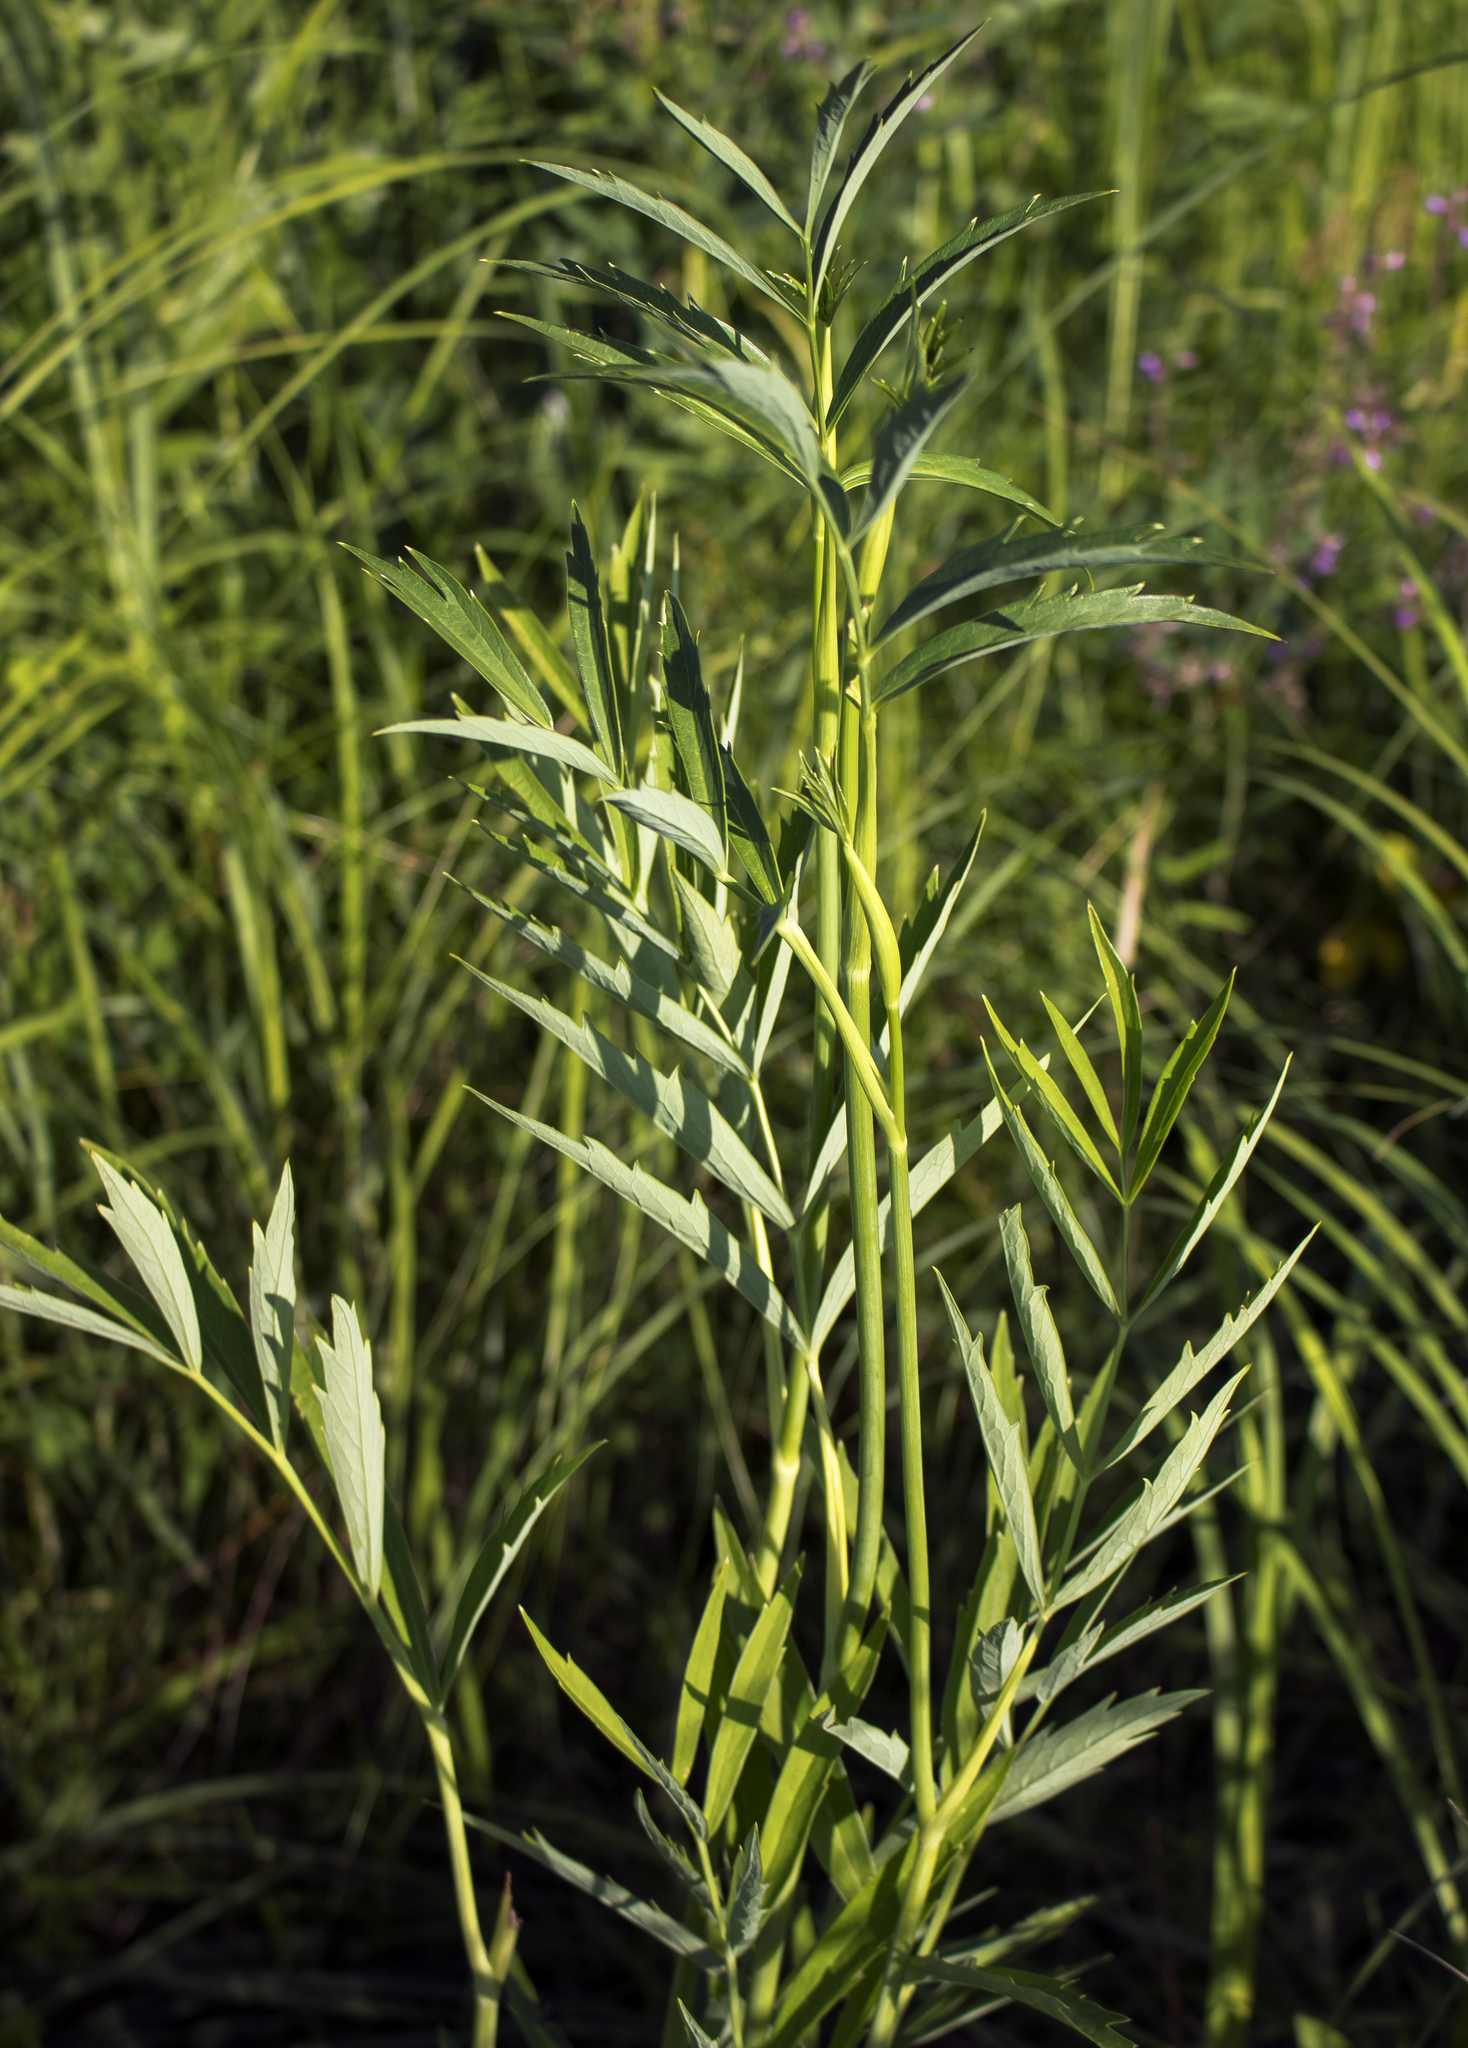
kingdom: Plantae
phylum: Tracheophyta
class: Magnoliopsida
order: Apiales
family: Apiaceae
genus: Oxypolis
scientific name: Oxypolis rigidior
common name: Cowbane
